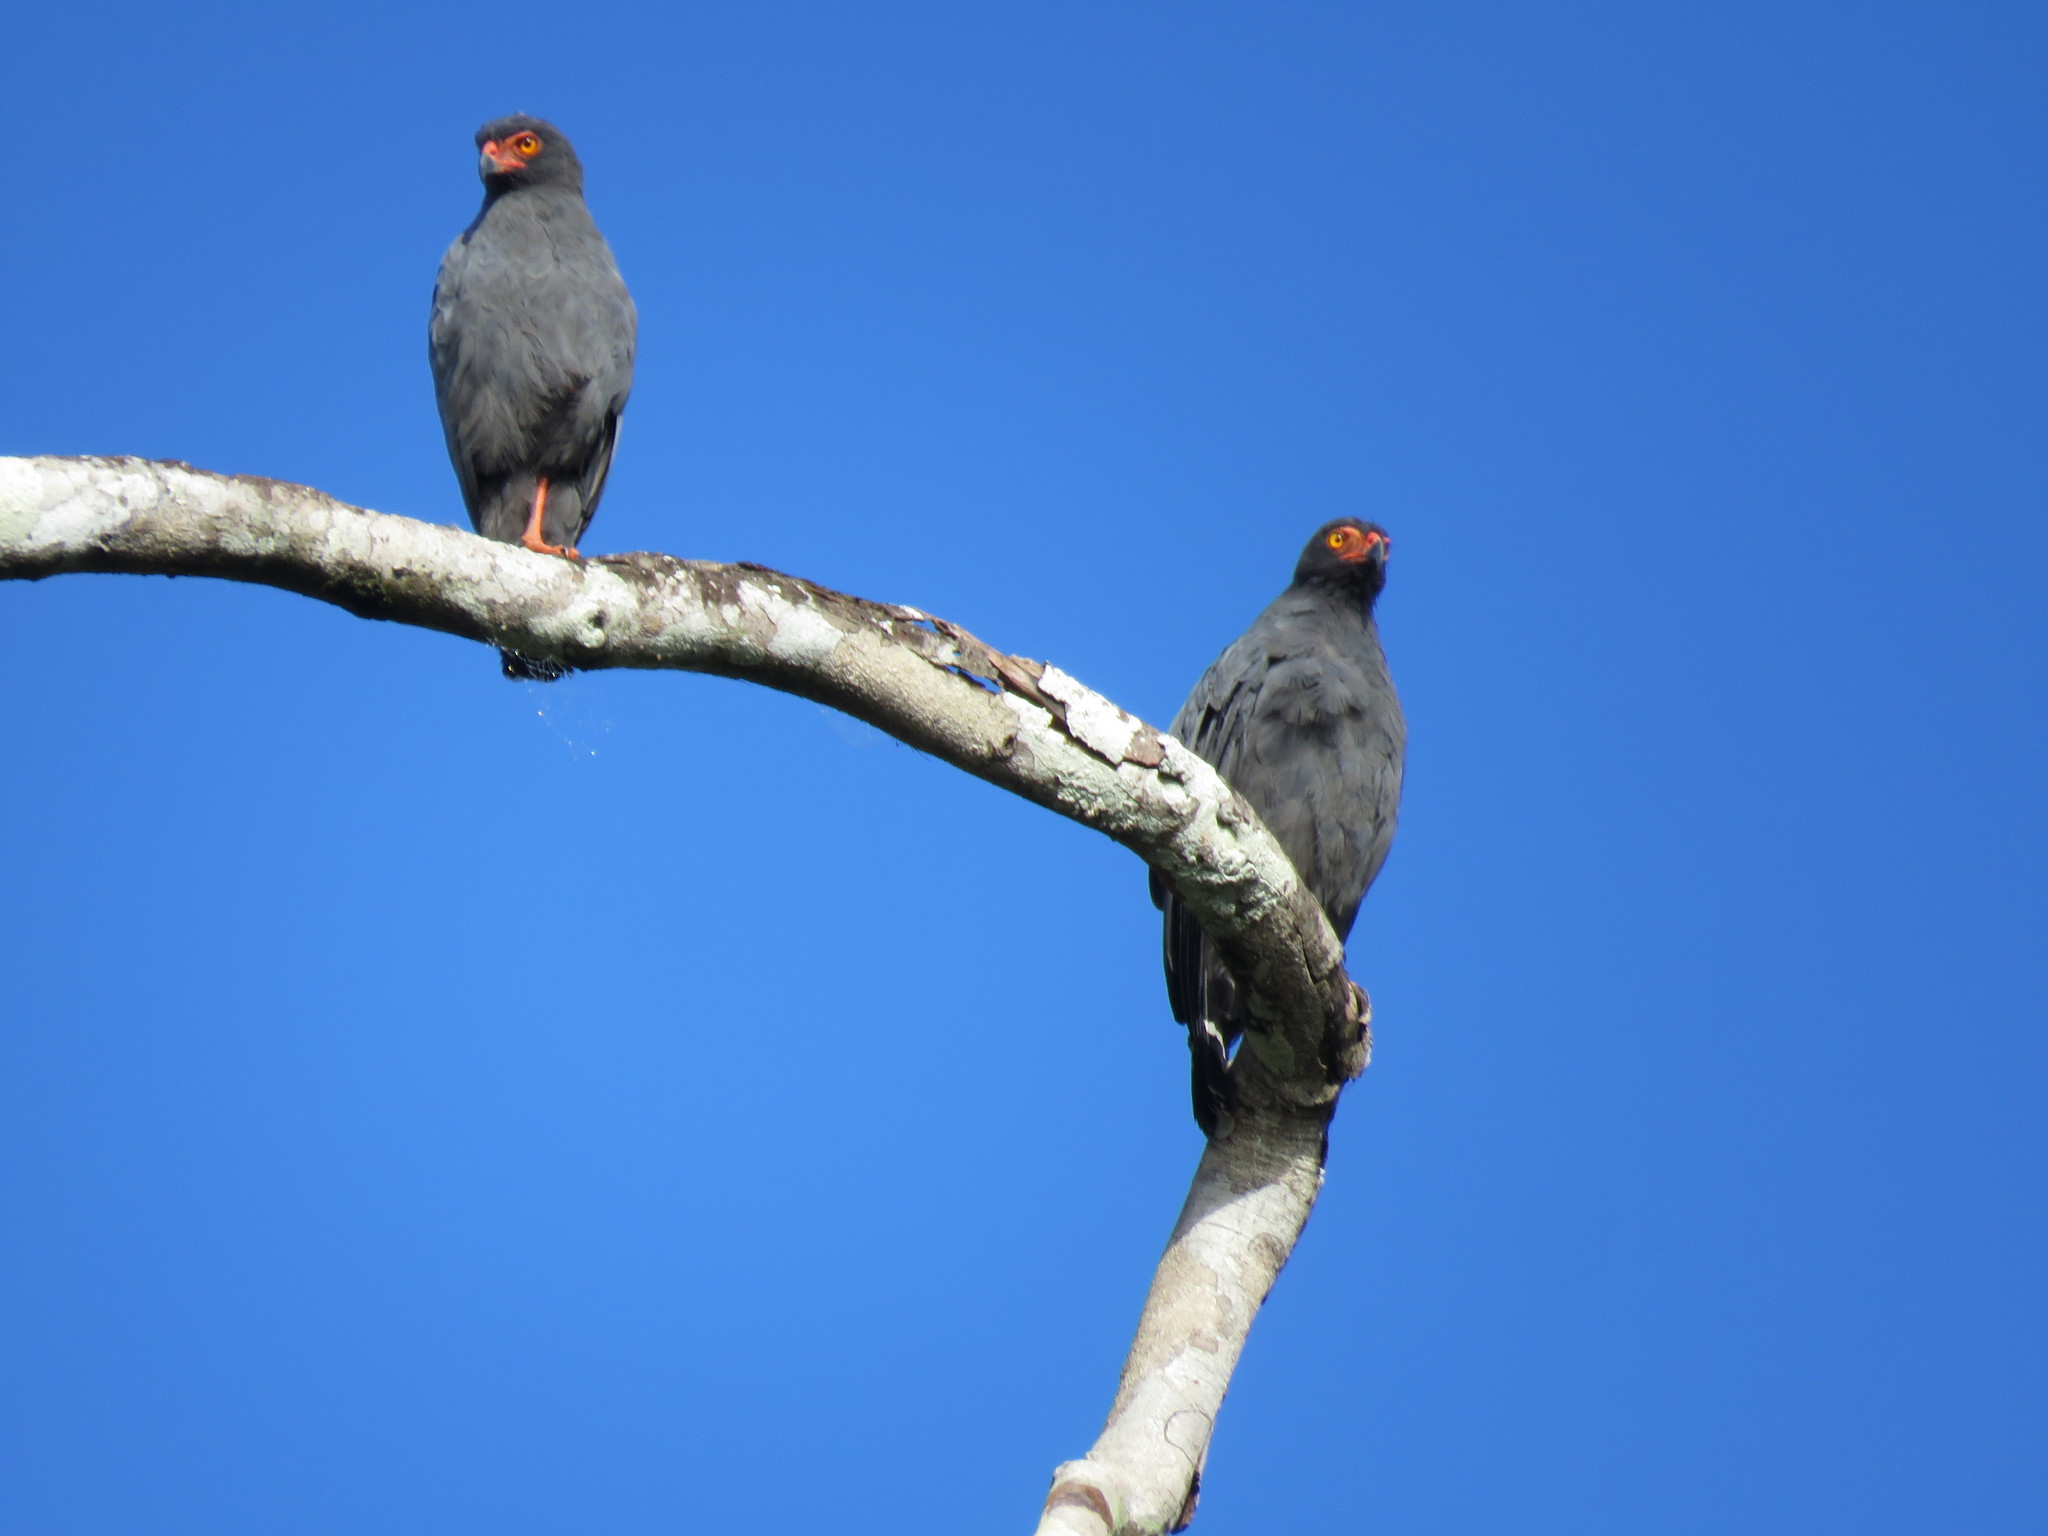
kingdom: Animalia
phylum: Chordata
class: Aves
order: Accipitriformes
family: Accipitridae
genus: Leucopternis
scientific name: Leucopternis schistaceus
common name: Slate-colored hawk
